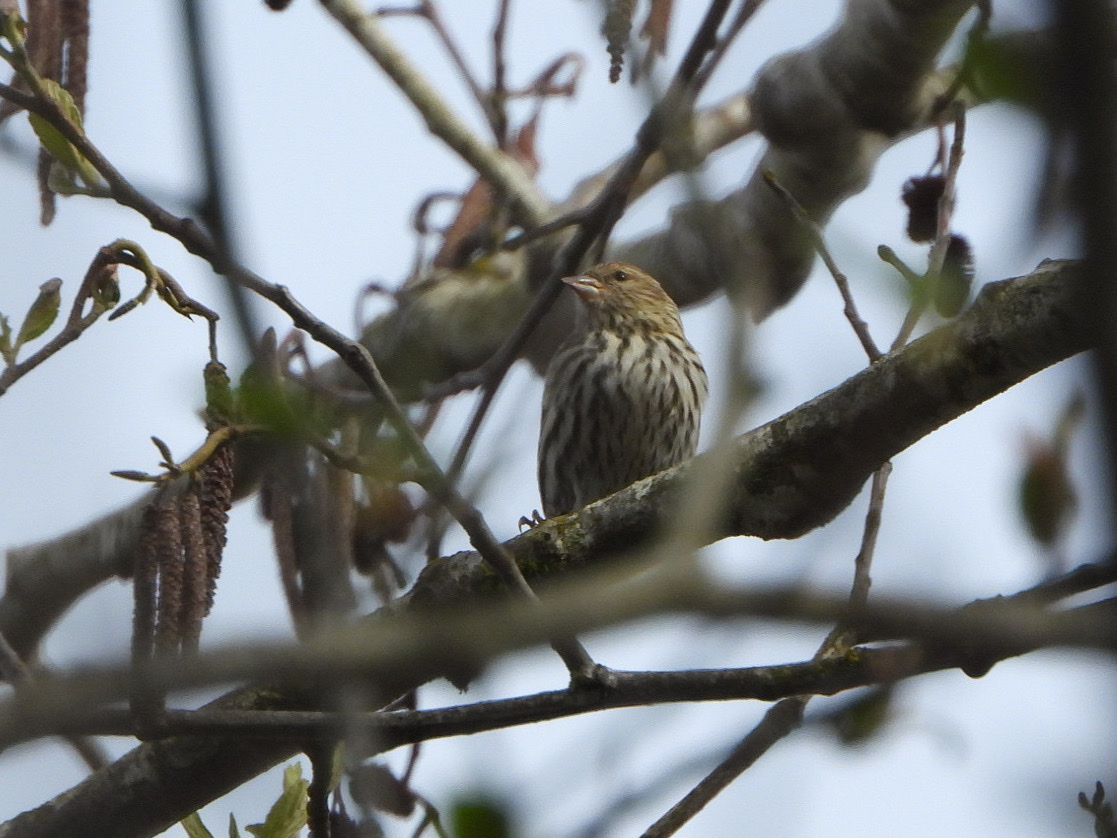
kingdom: Animalia
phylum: Chordata
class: Aves
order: Passeriformes
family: Fringillidae
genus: Spinus
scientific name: Spinus pinus
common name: Pine siskin
